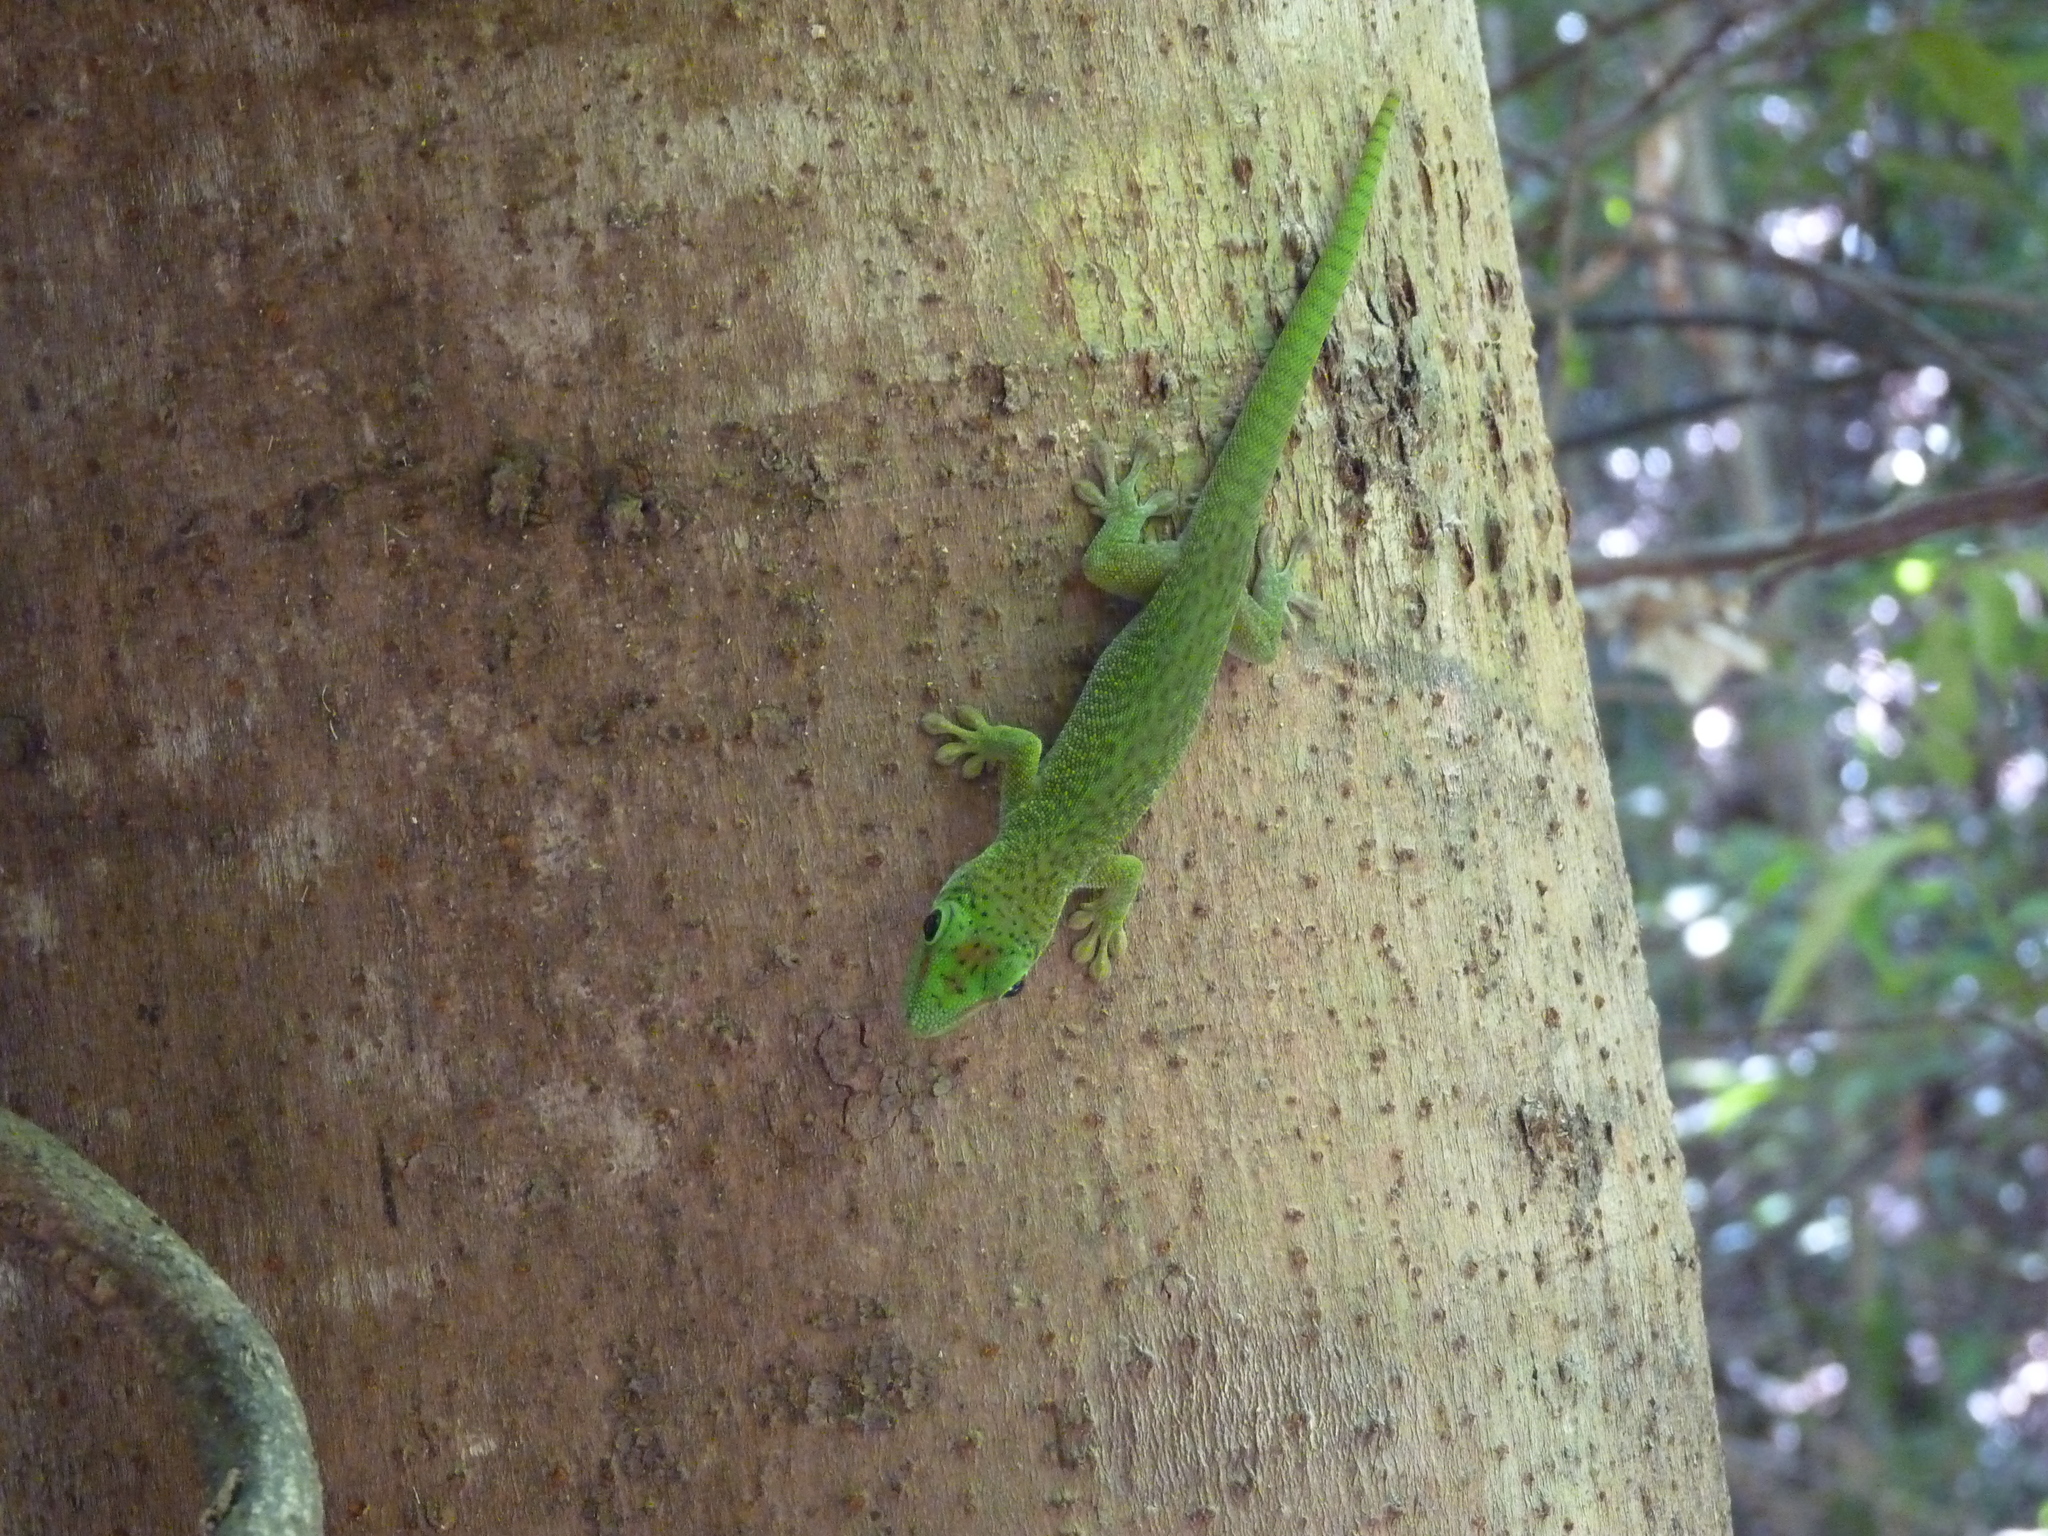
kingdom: Animalia
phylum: Chordata
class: Squamata
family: Gekkonidae
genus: Phelsuma
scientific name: Phelsuma grandis
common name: Madagascar giant day gecko
